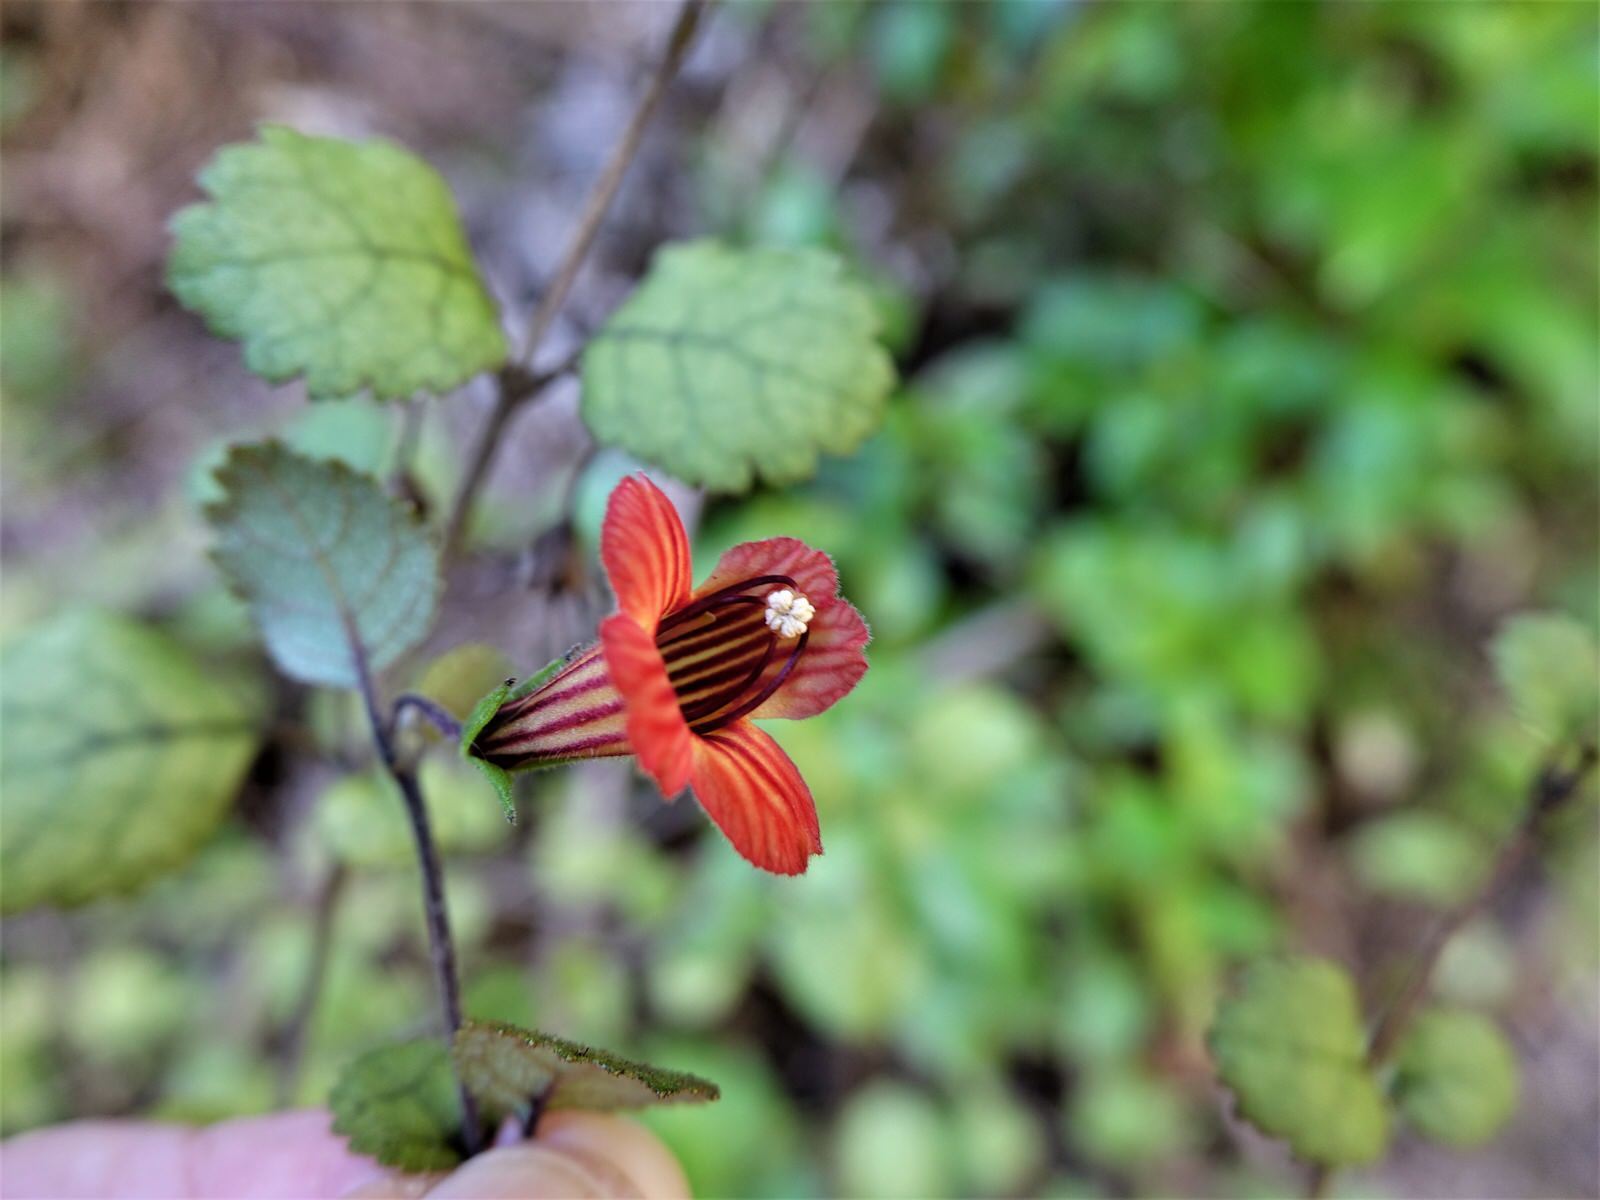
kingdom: Plantae
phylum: Tracheophyta
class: Magnoliopsida
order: Lamiales
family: Gesneriaceae
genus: Rhabdothamnus
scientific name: Rhabdothamnus solandri
